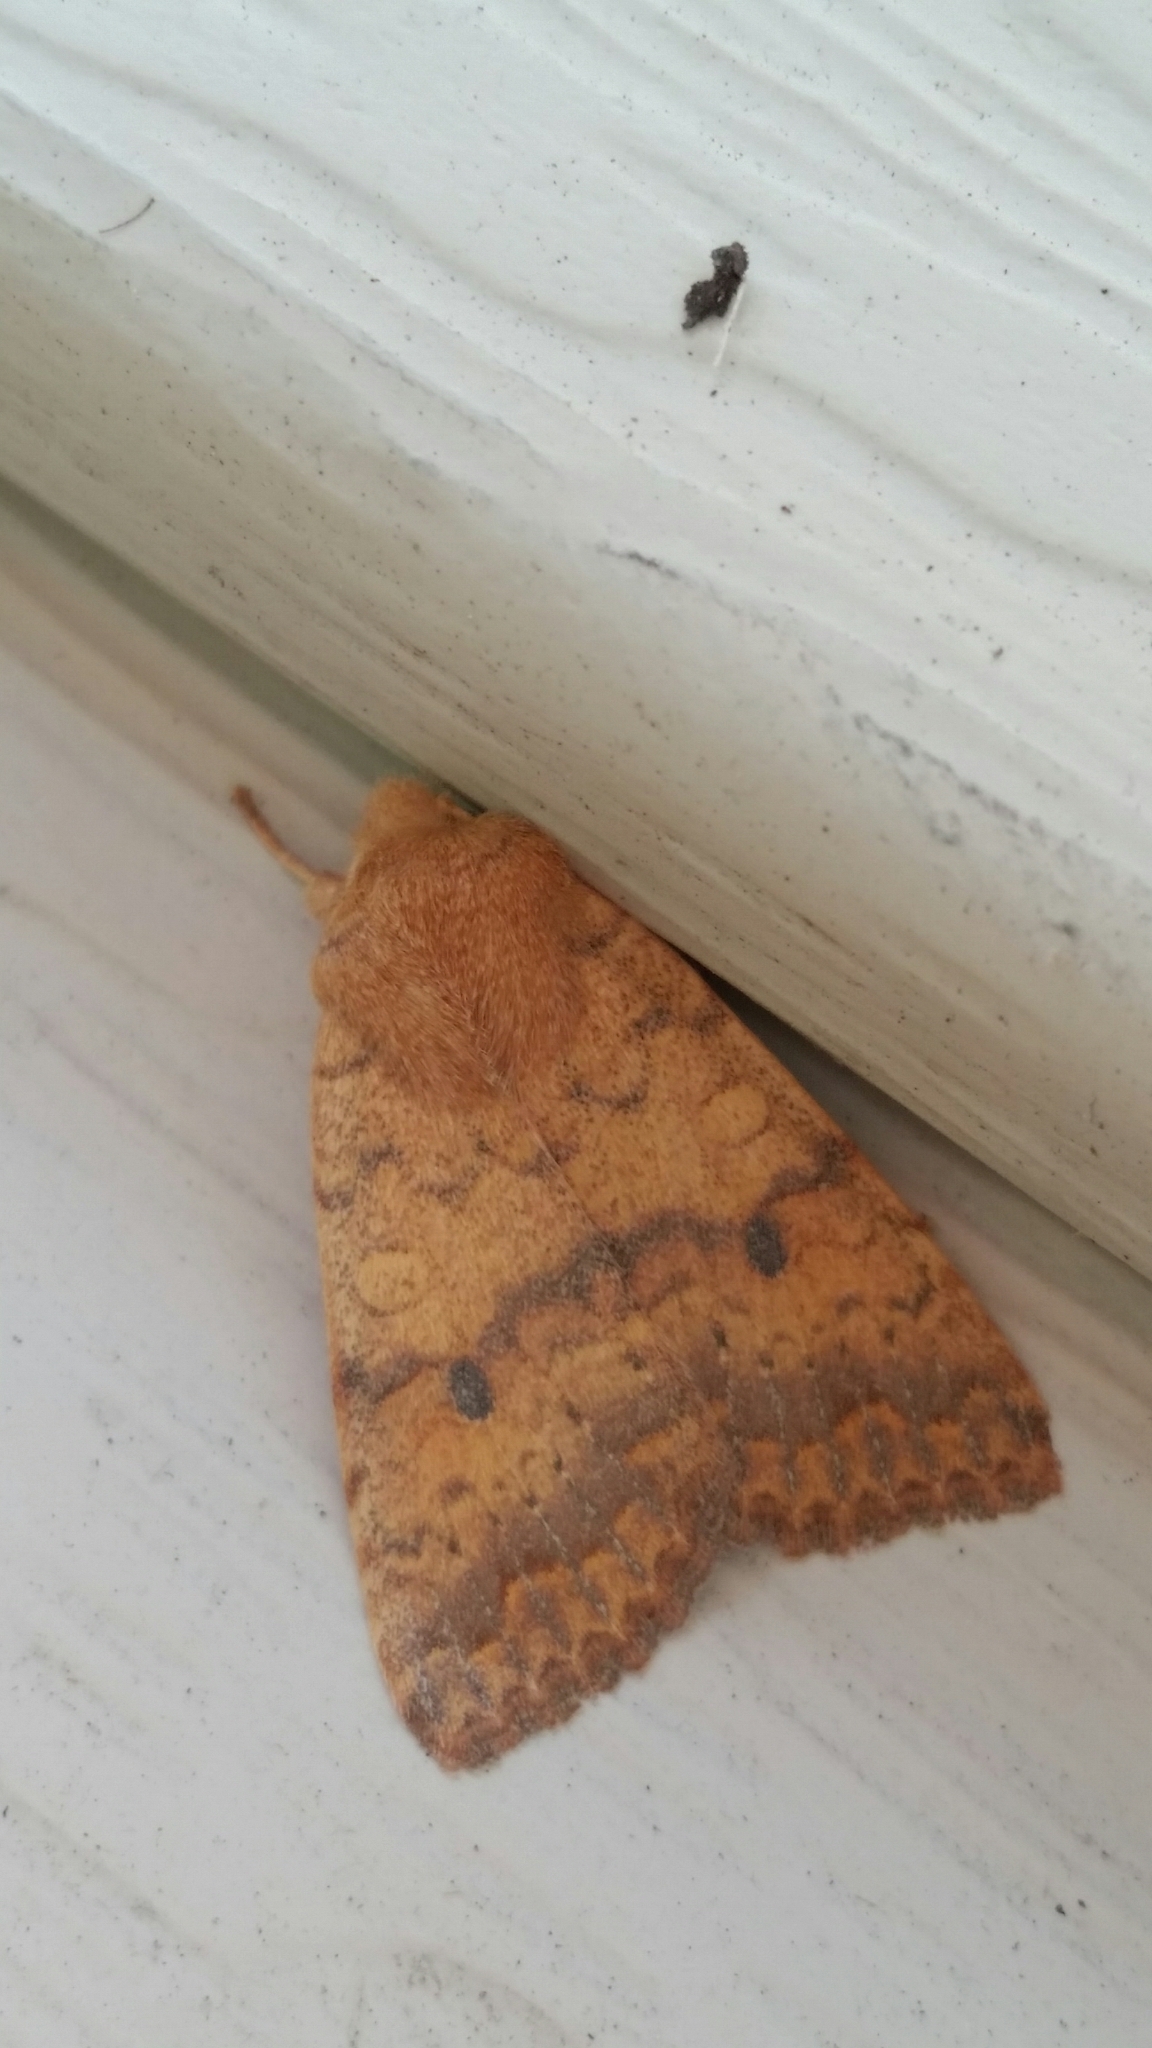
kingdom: Animalia
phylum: Arthropoda
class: Insecta
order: Lepidoptera
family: Noctuidae
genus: Agrochola
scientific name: Agrochola bicolorago
